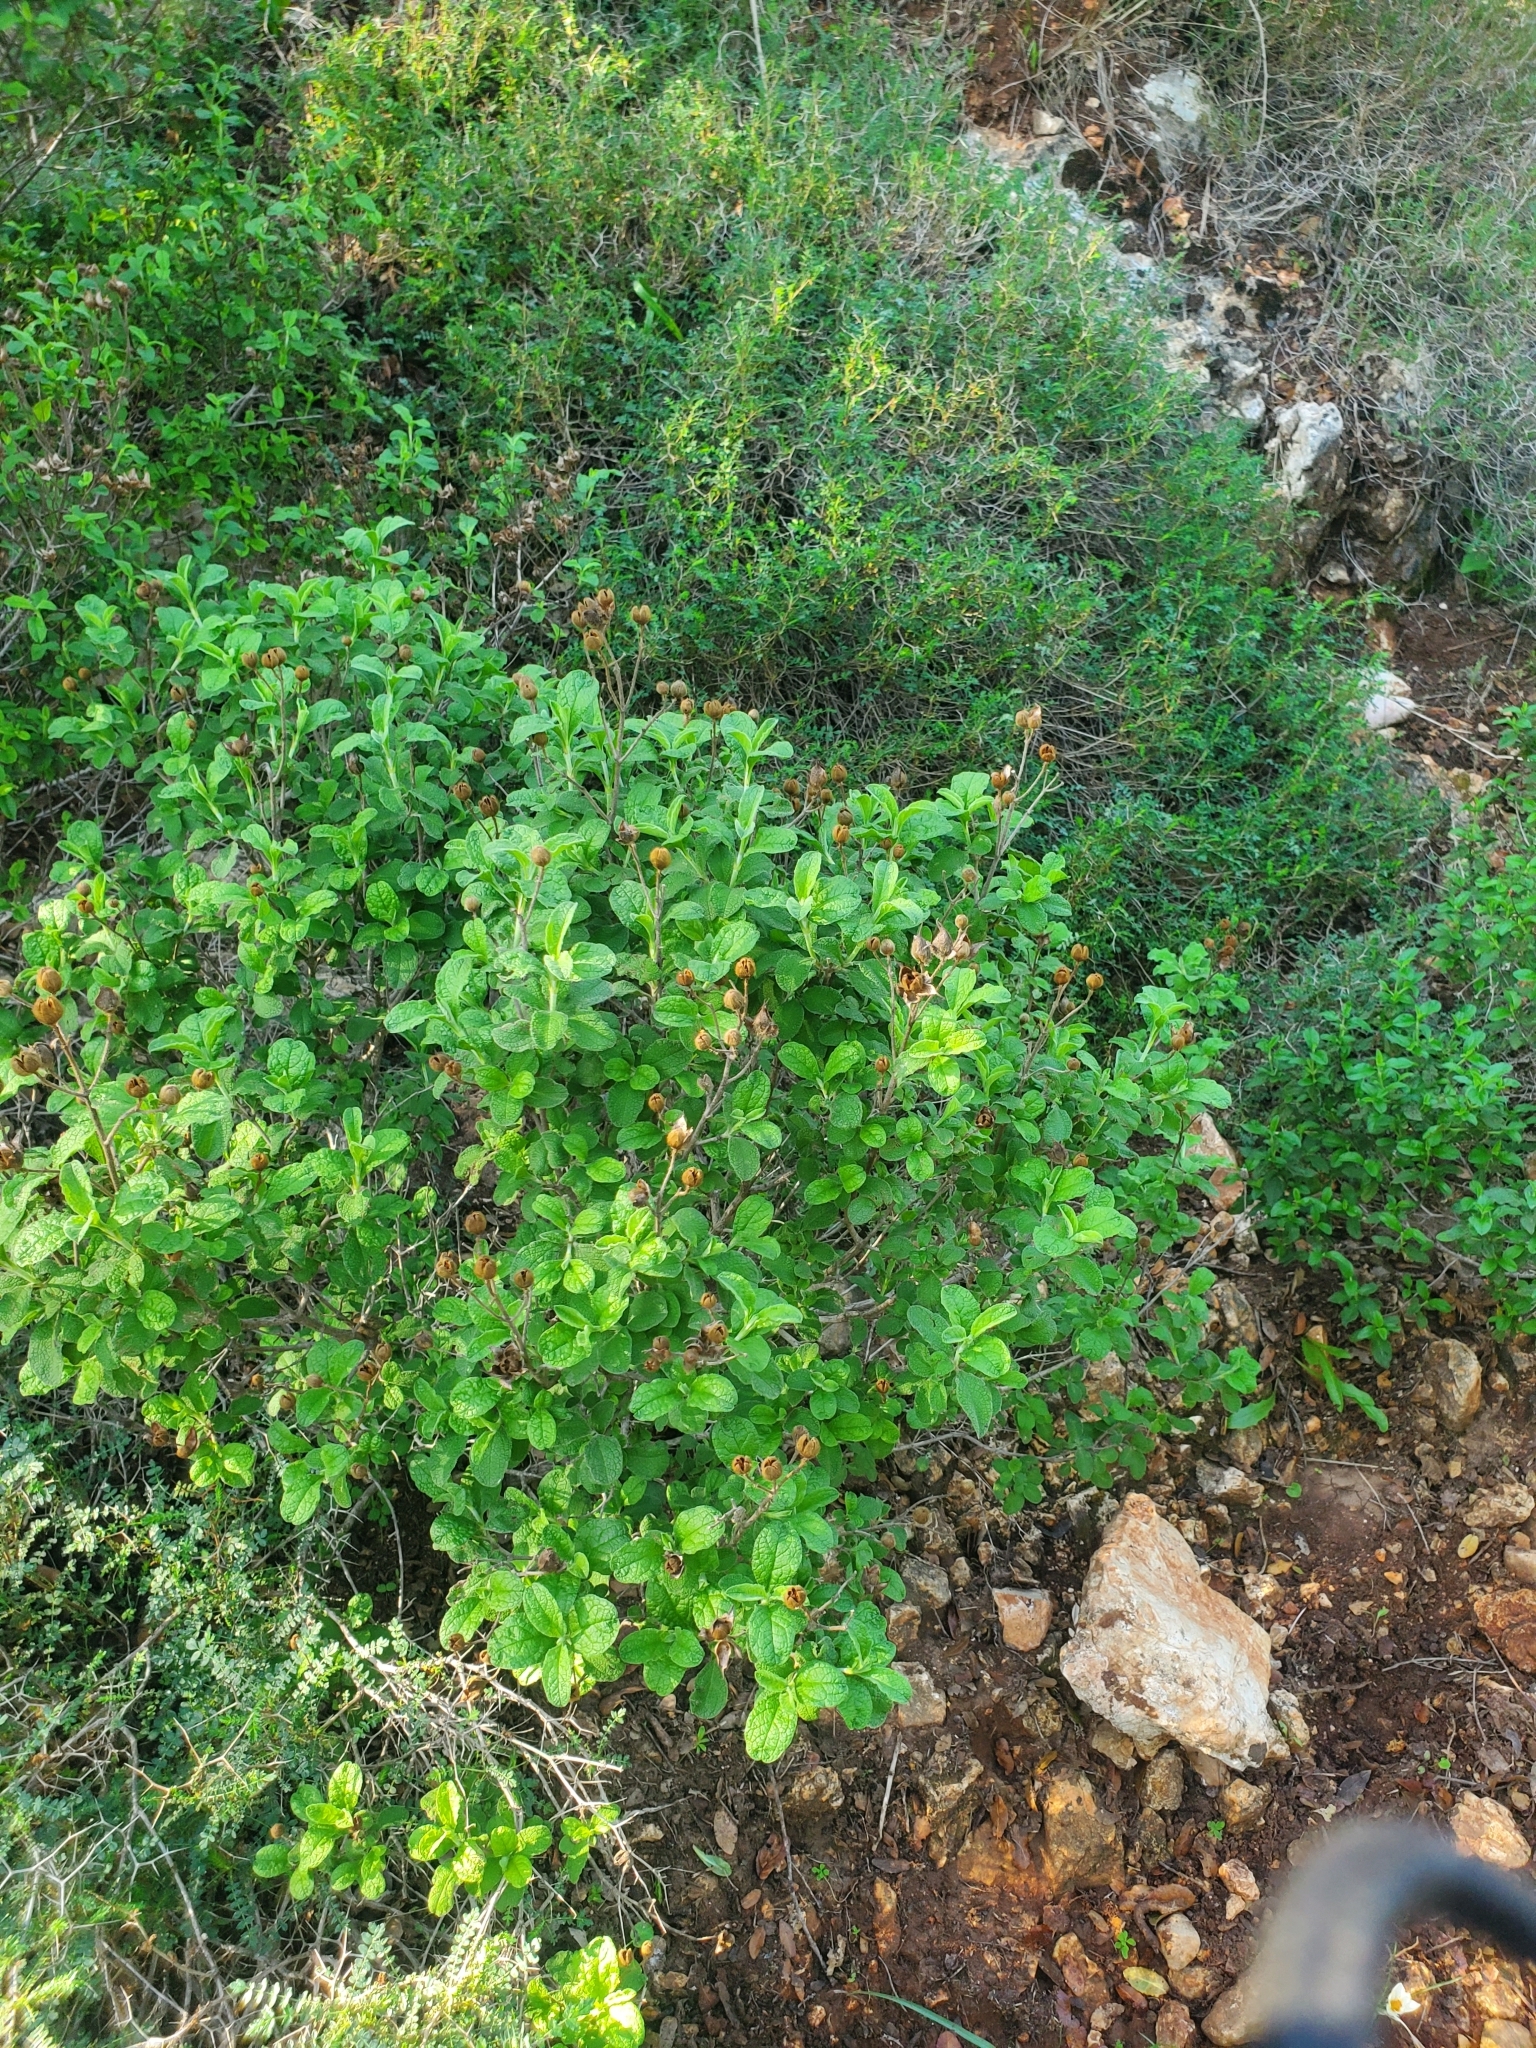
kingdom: Plantae
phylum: Tracheophyta
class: Magnoliopsida
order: Malvales
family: Cistaceae
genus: Cistus
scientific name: Cistus creticus
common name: Cretan rockrose
